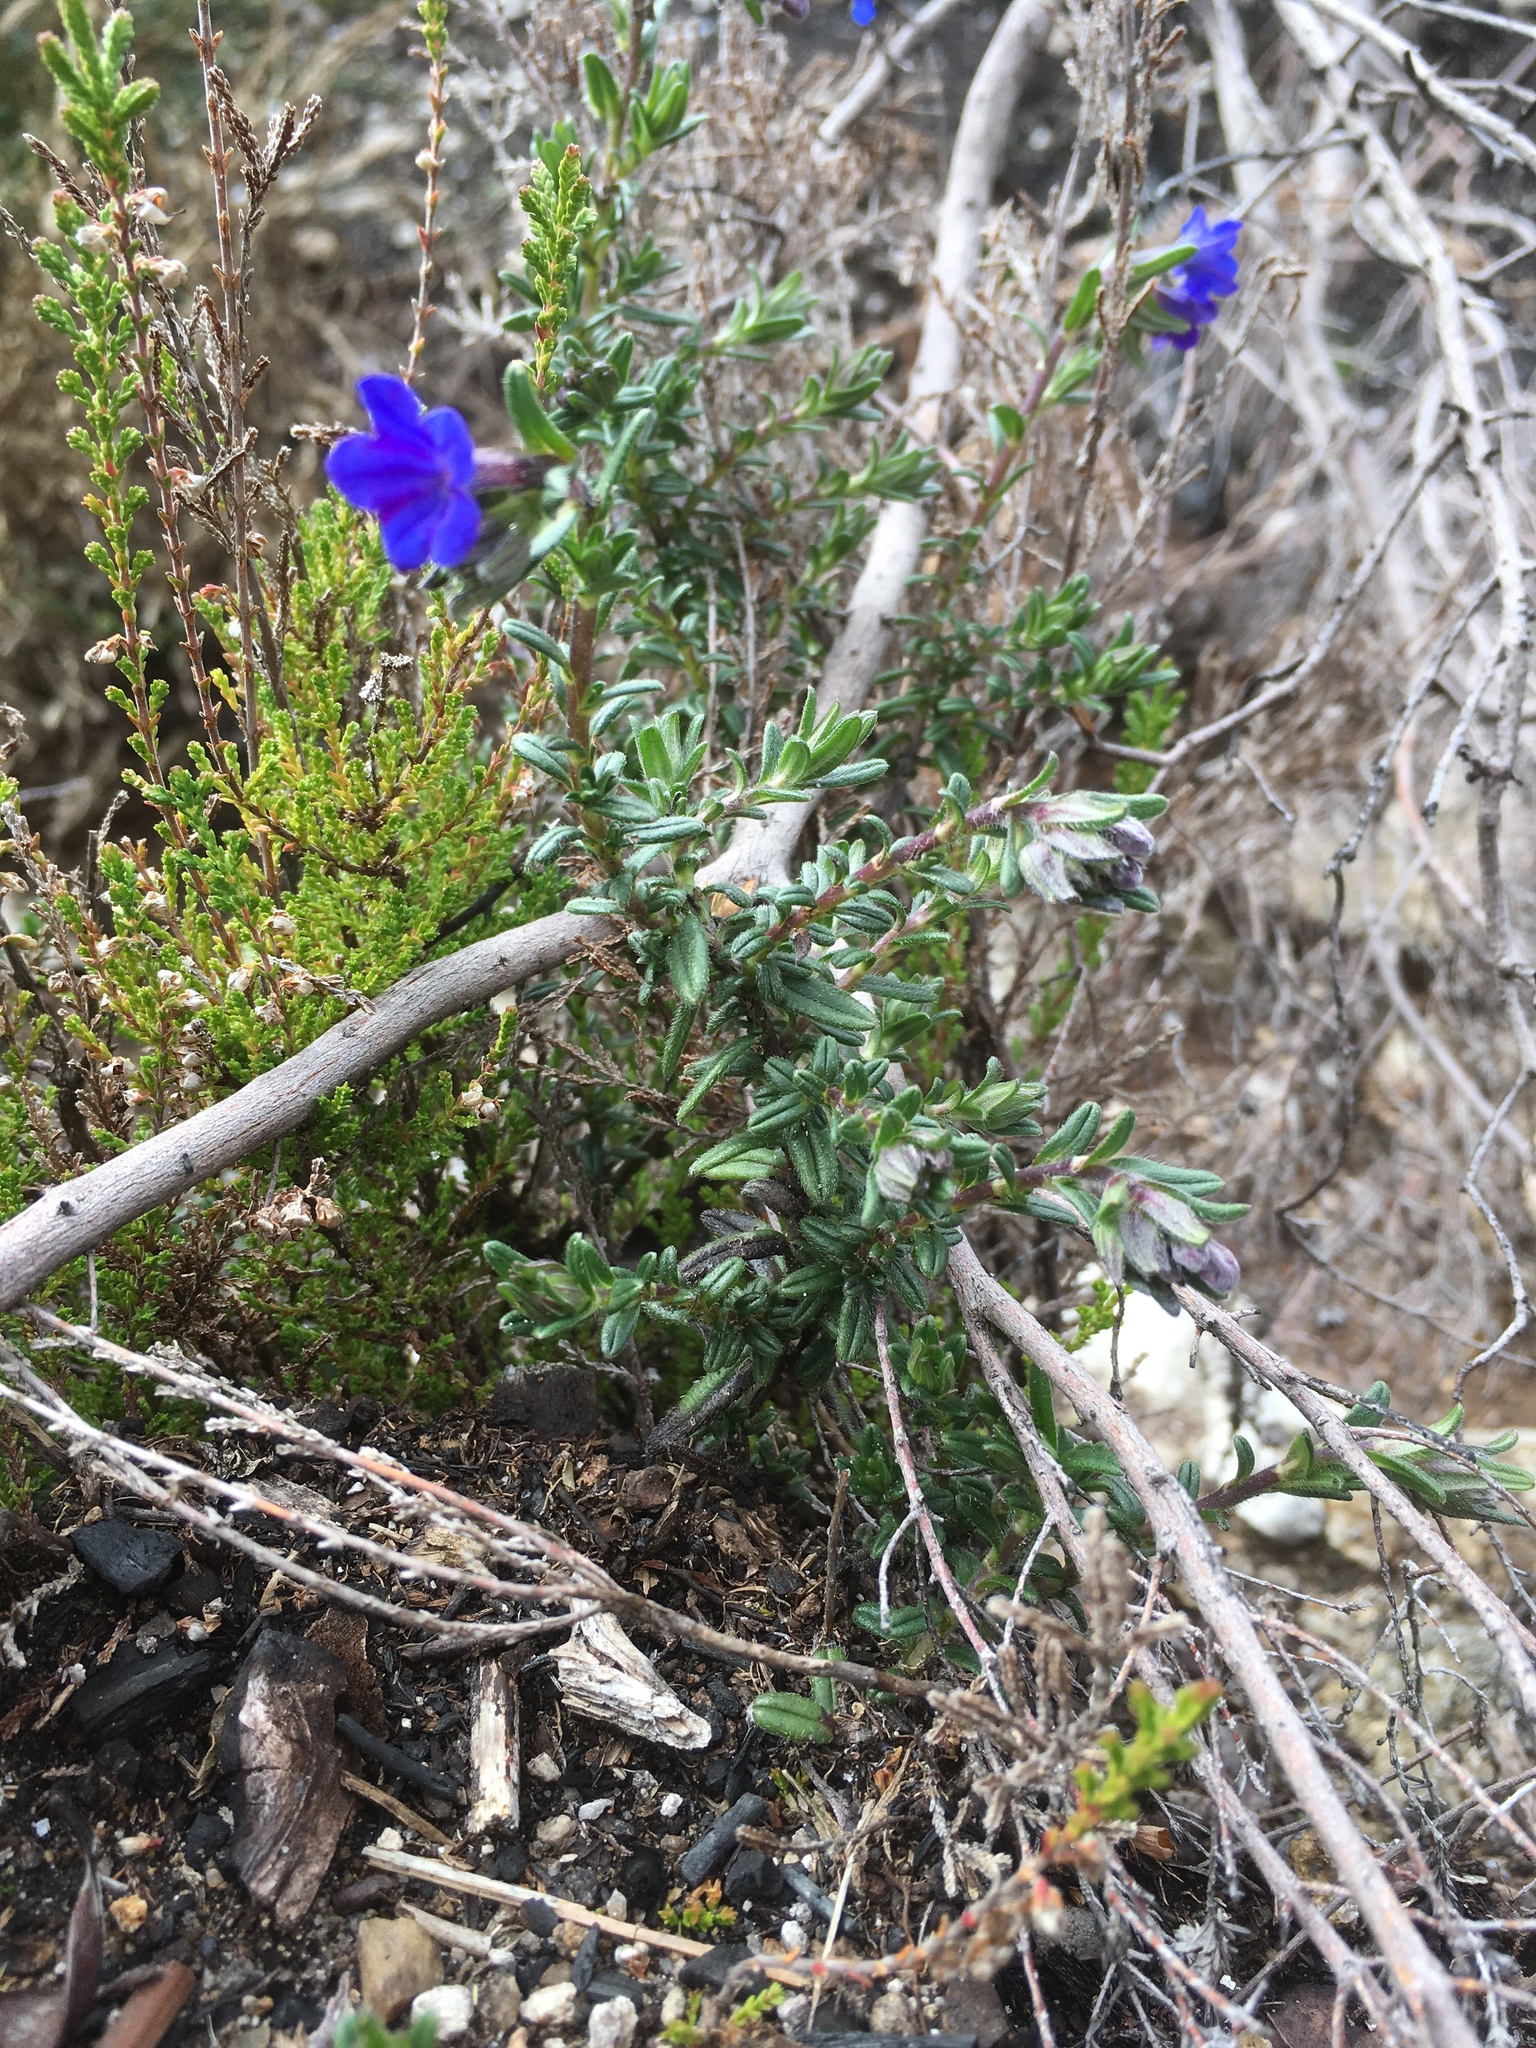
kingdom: Plantae
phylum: Tracheophyta
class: Magnoliopsida
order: Boraginales
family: Boraginaceae
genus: Glandora
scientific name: Glandora prostrata
